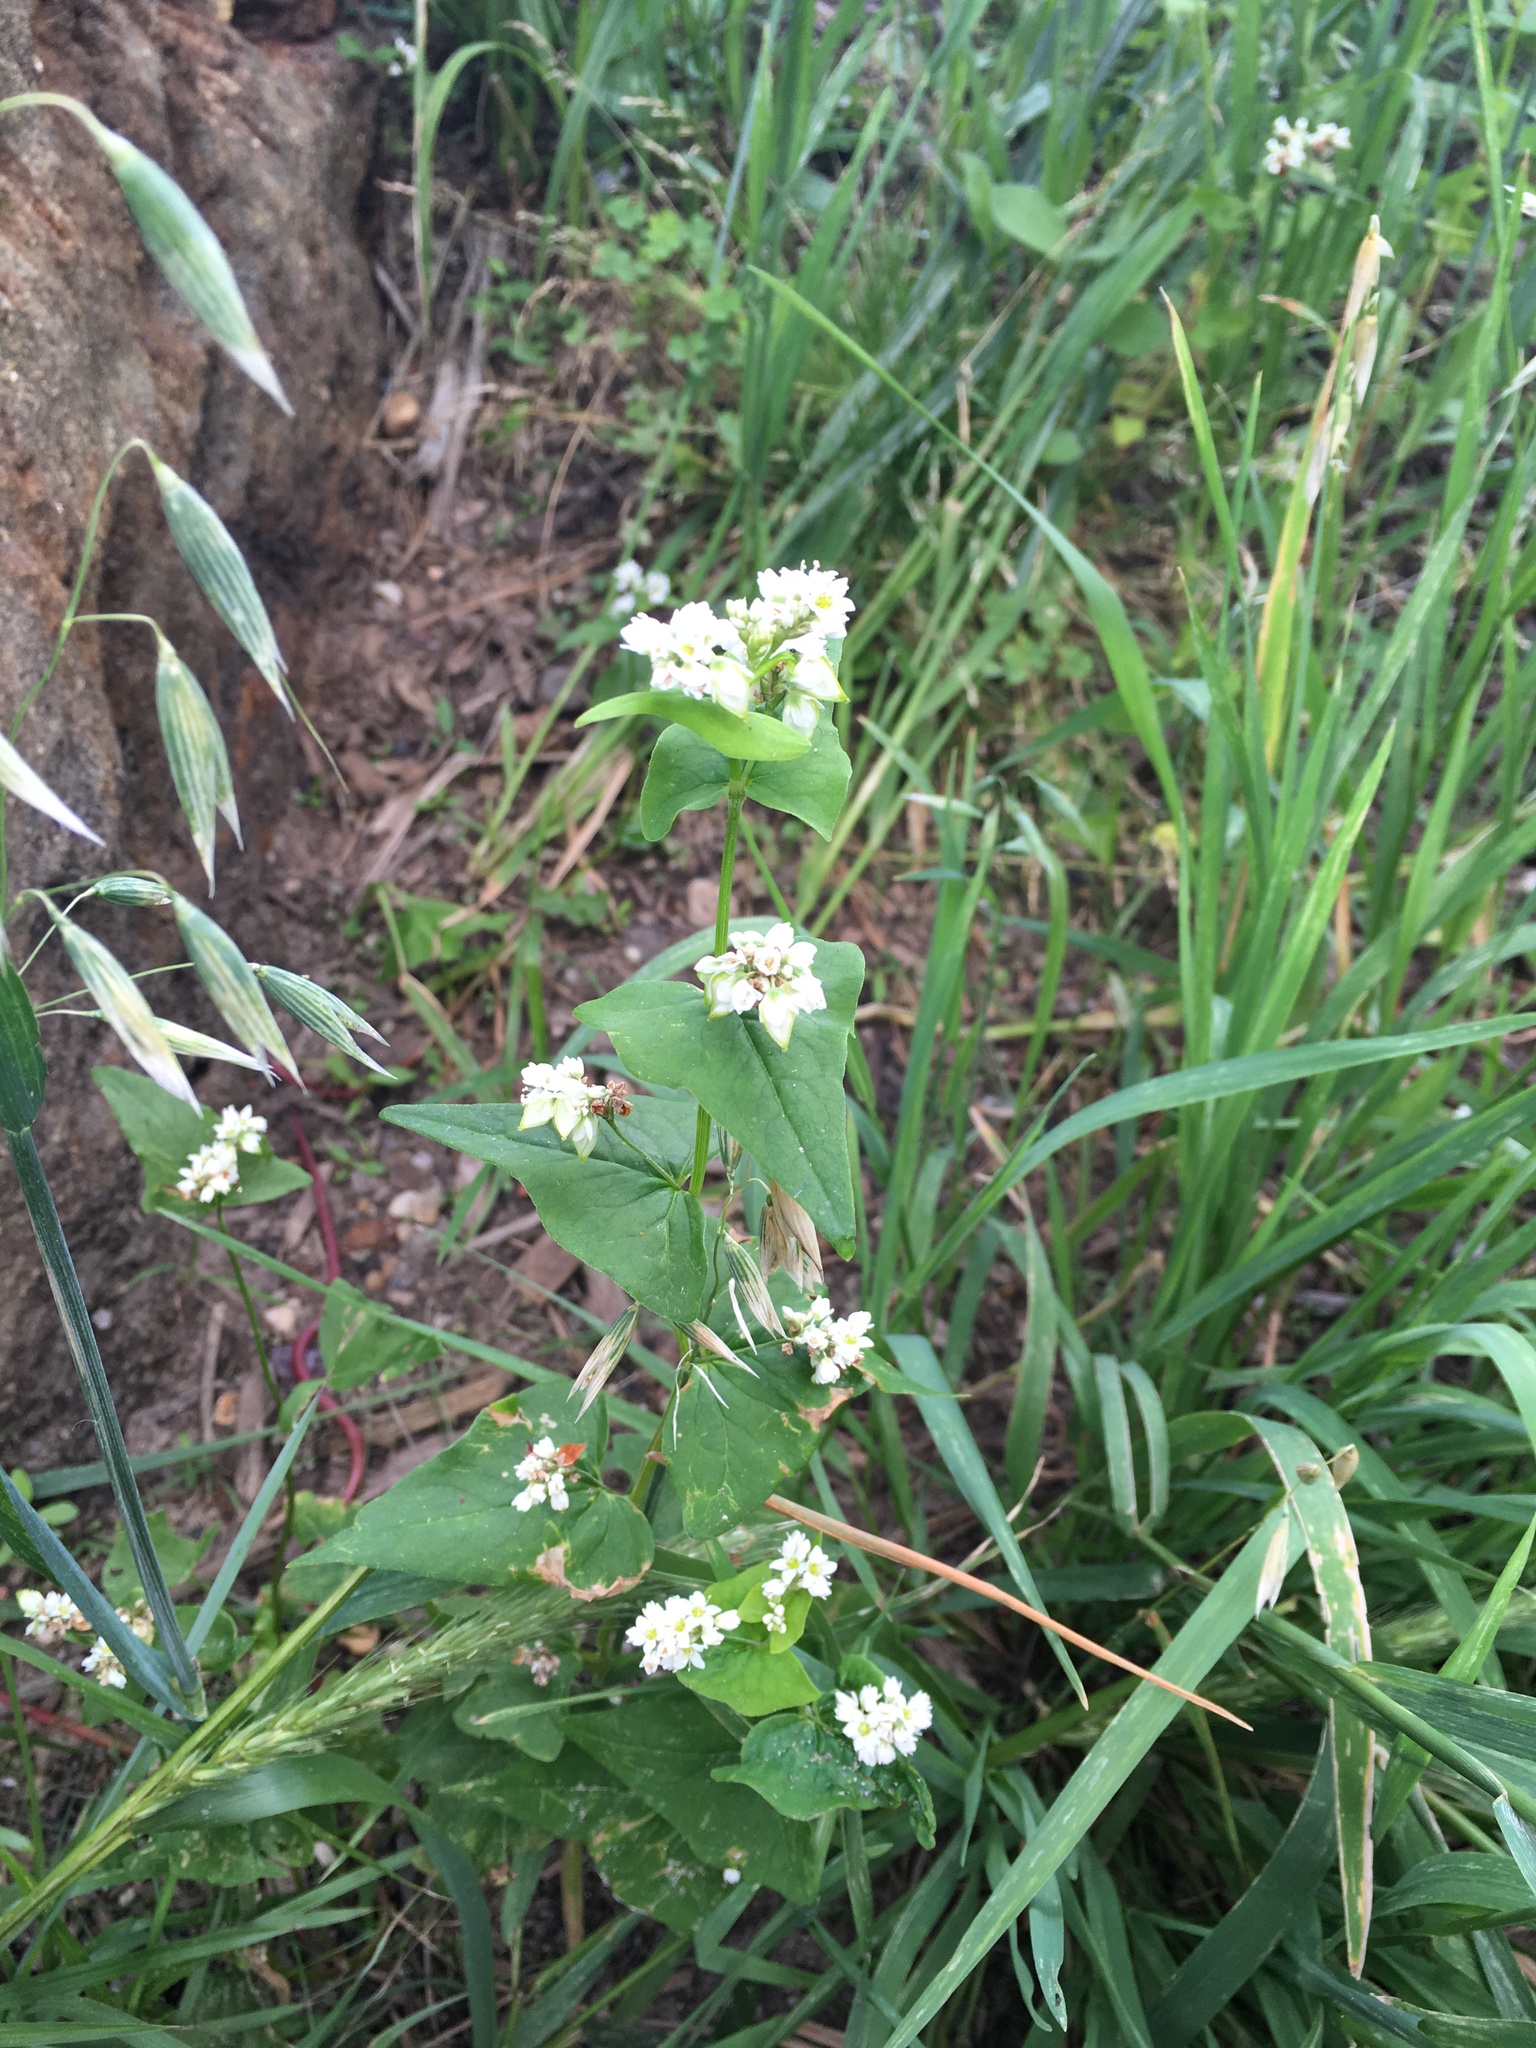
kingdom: Plantae
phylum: Tracheophyta
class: Magnoliopsida
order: Caryophyllales
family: Polygonaceae
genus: Fagopyrum
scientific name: Fagopyrum esculentum
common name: Buckwheat
